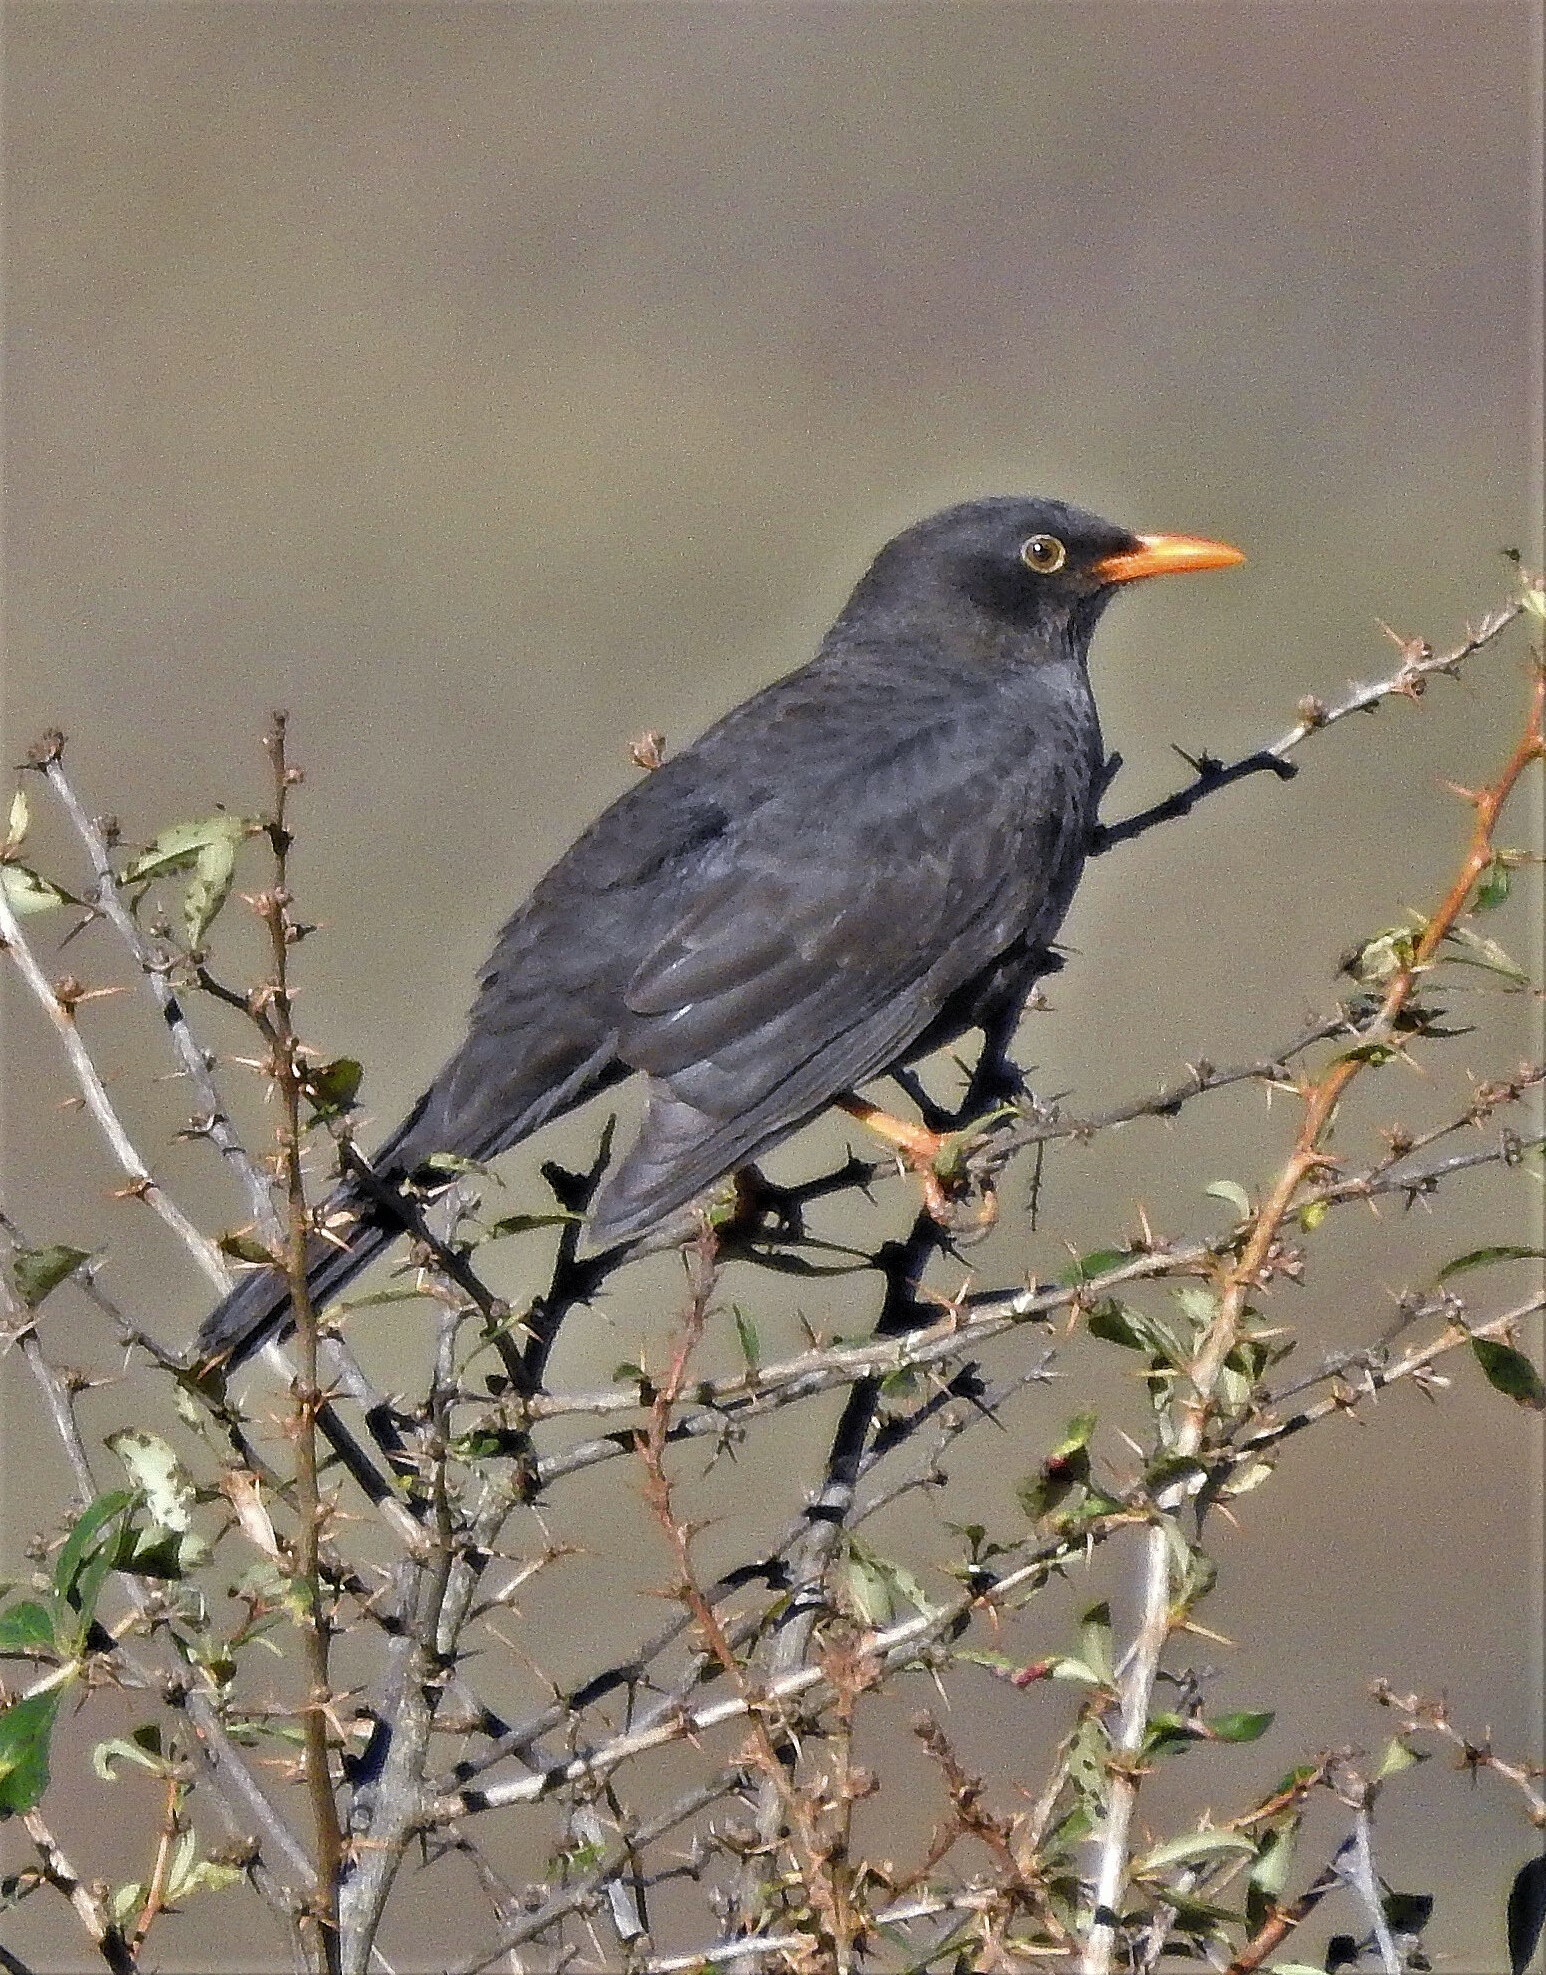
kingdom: Animalia
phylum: Chordata
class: Aves
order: Passeriformes
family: Turdidae
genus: Turdus
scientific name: Turdus chiguanco
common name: Chiguanco thrush
